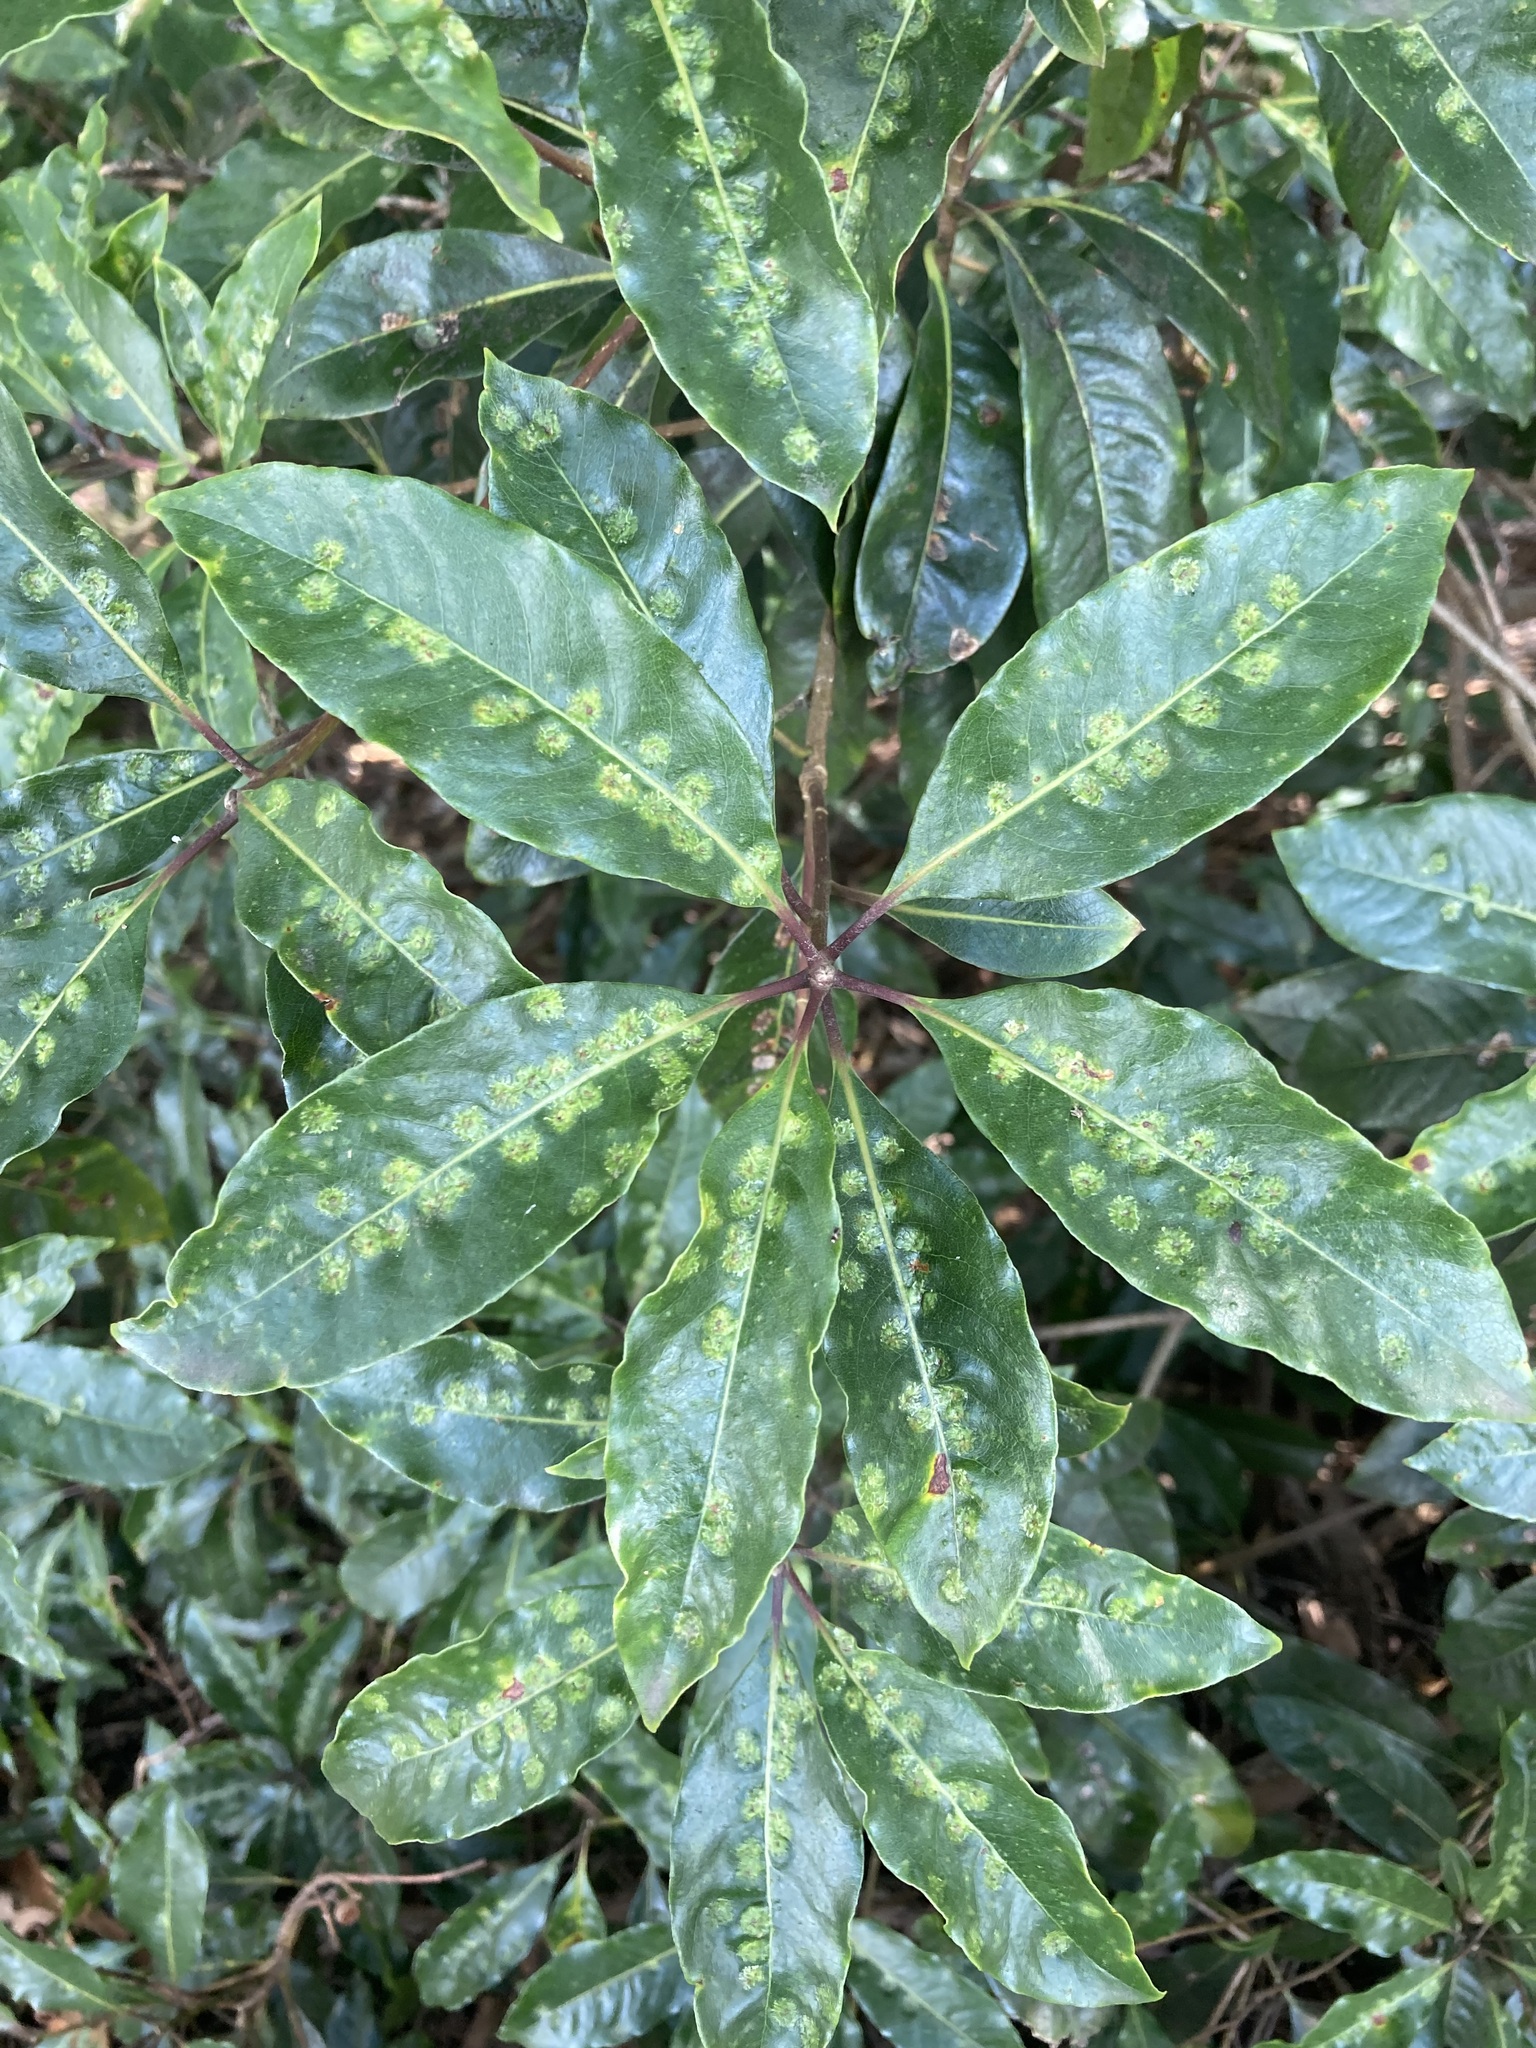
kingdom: Animalia
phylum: Arthropoda
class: Insecta
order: Diptera
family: Agromyzidae
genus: Phytoliriomyza
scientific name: Phytoliriomyza pittosporophylli
